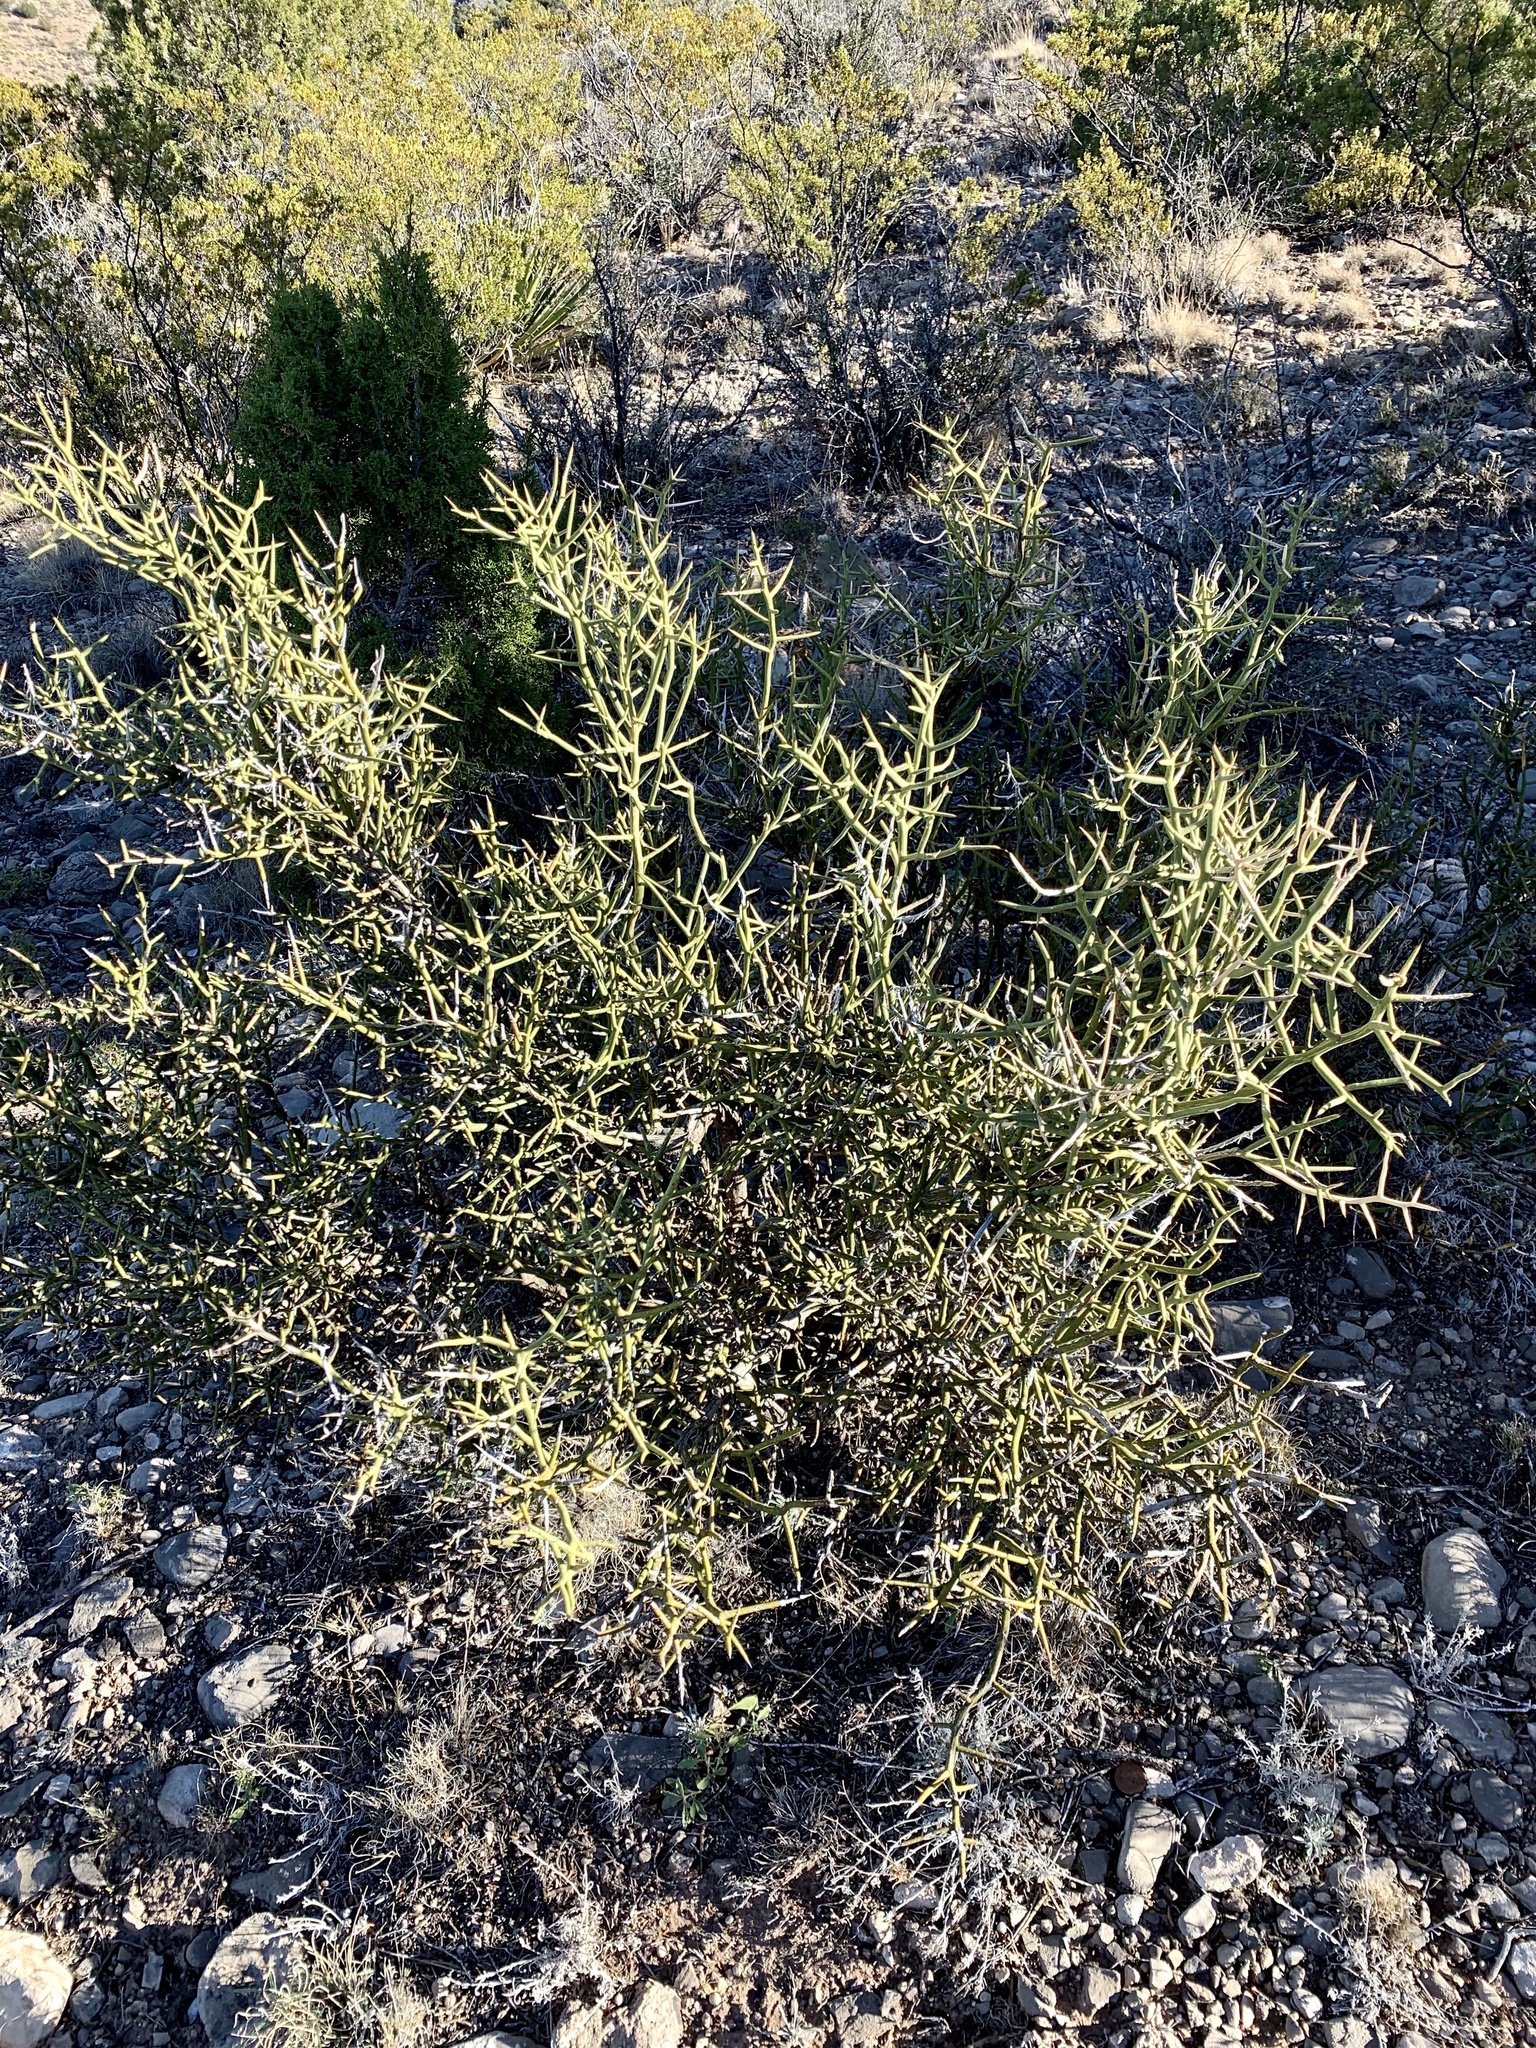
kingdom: Plantae
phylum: Tracheophyta
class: Magnoliopsida
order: Brassicales
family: Koeberliniaceae
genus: Koeberlinia
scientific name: Koeberlinia spinosa
